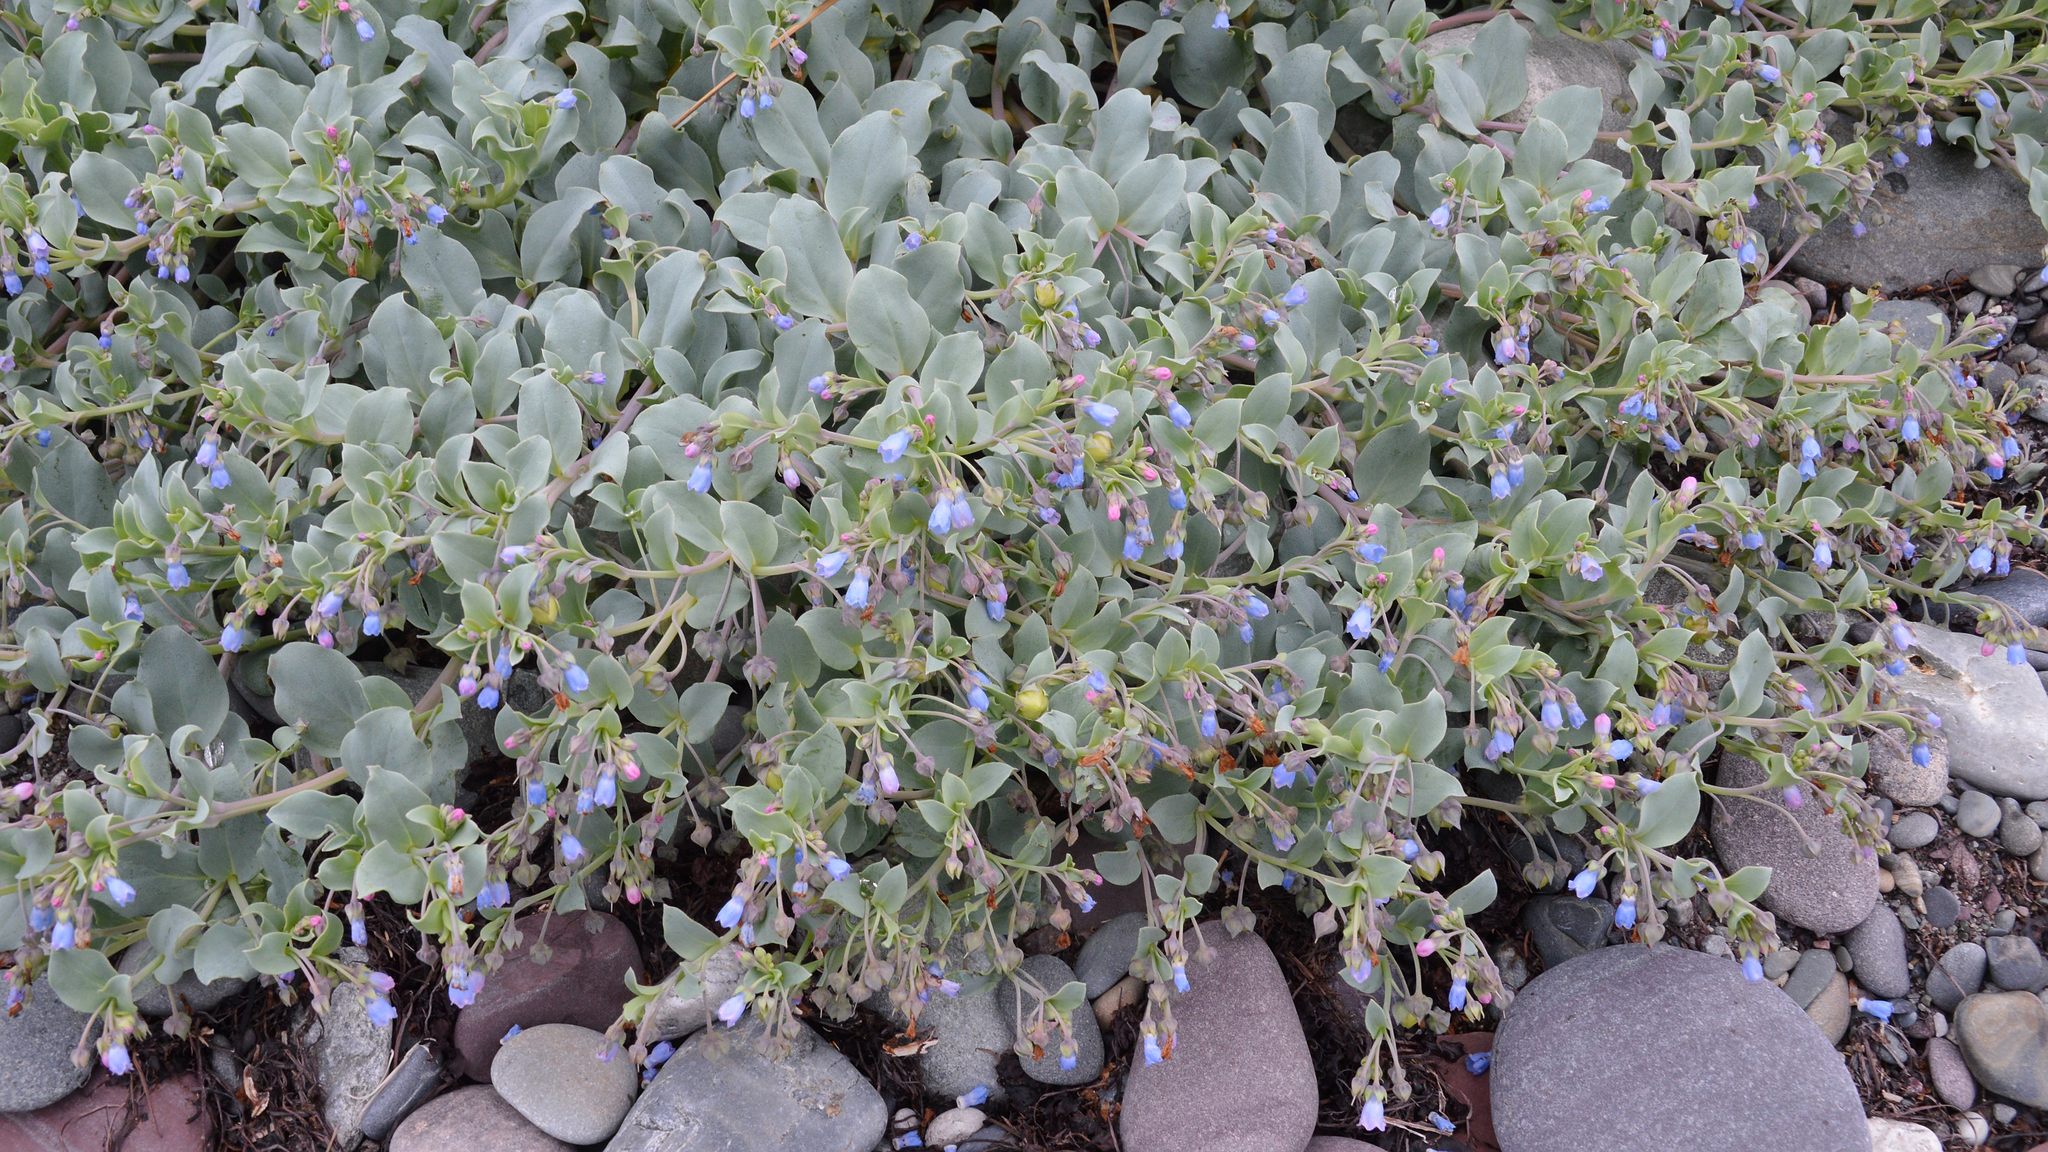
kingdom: Plantae
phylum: Tracheophyta
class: Magnoliopsida
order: Boraginales
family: Boraginaceae
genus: Mertensia
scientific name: Mertensia maritima
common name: Oysterplant
